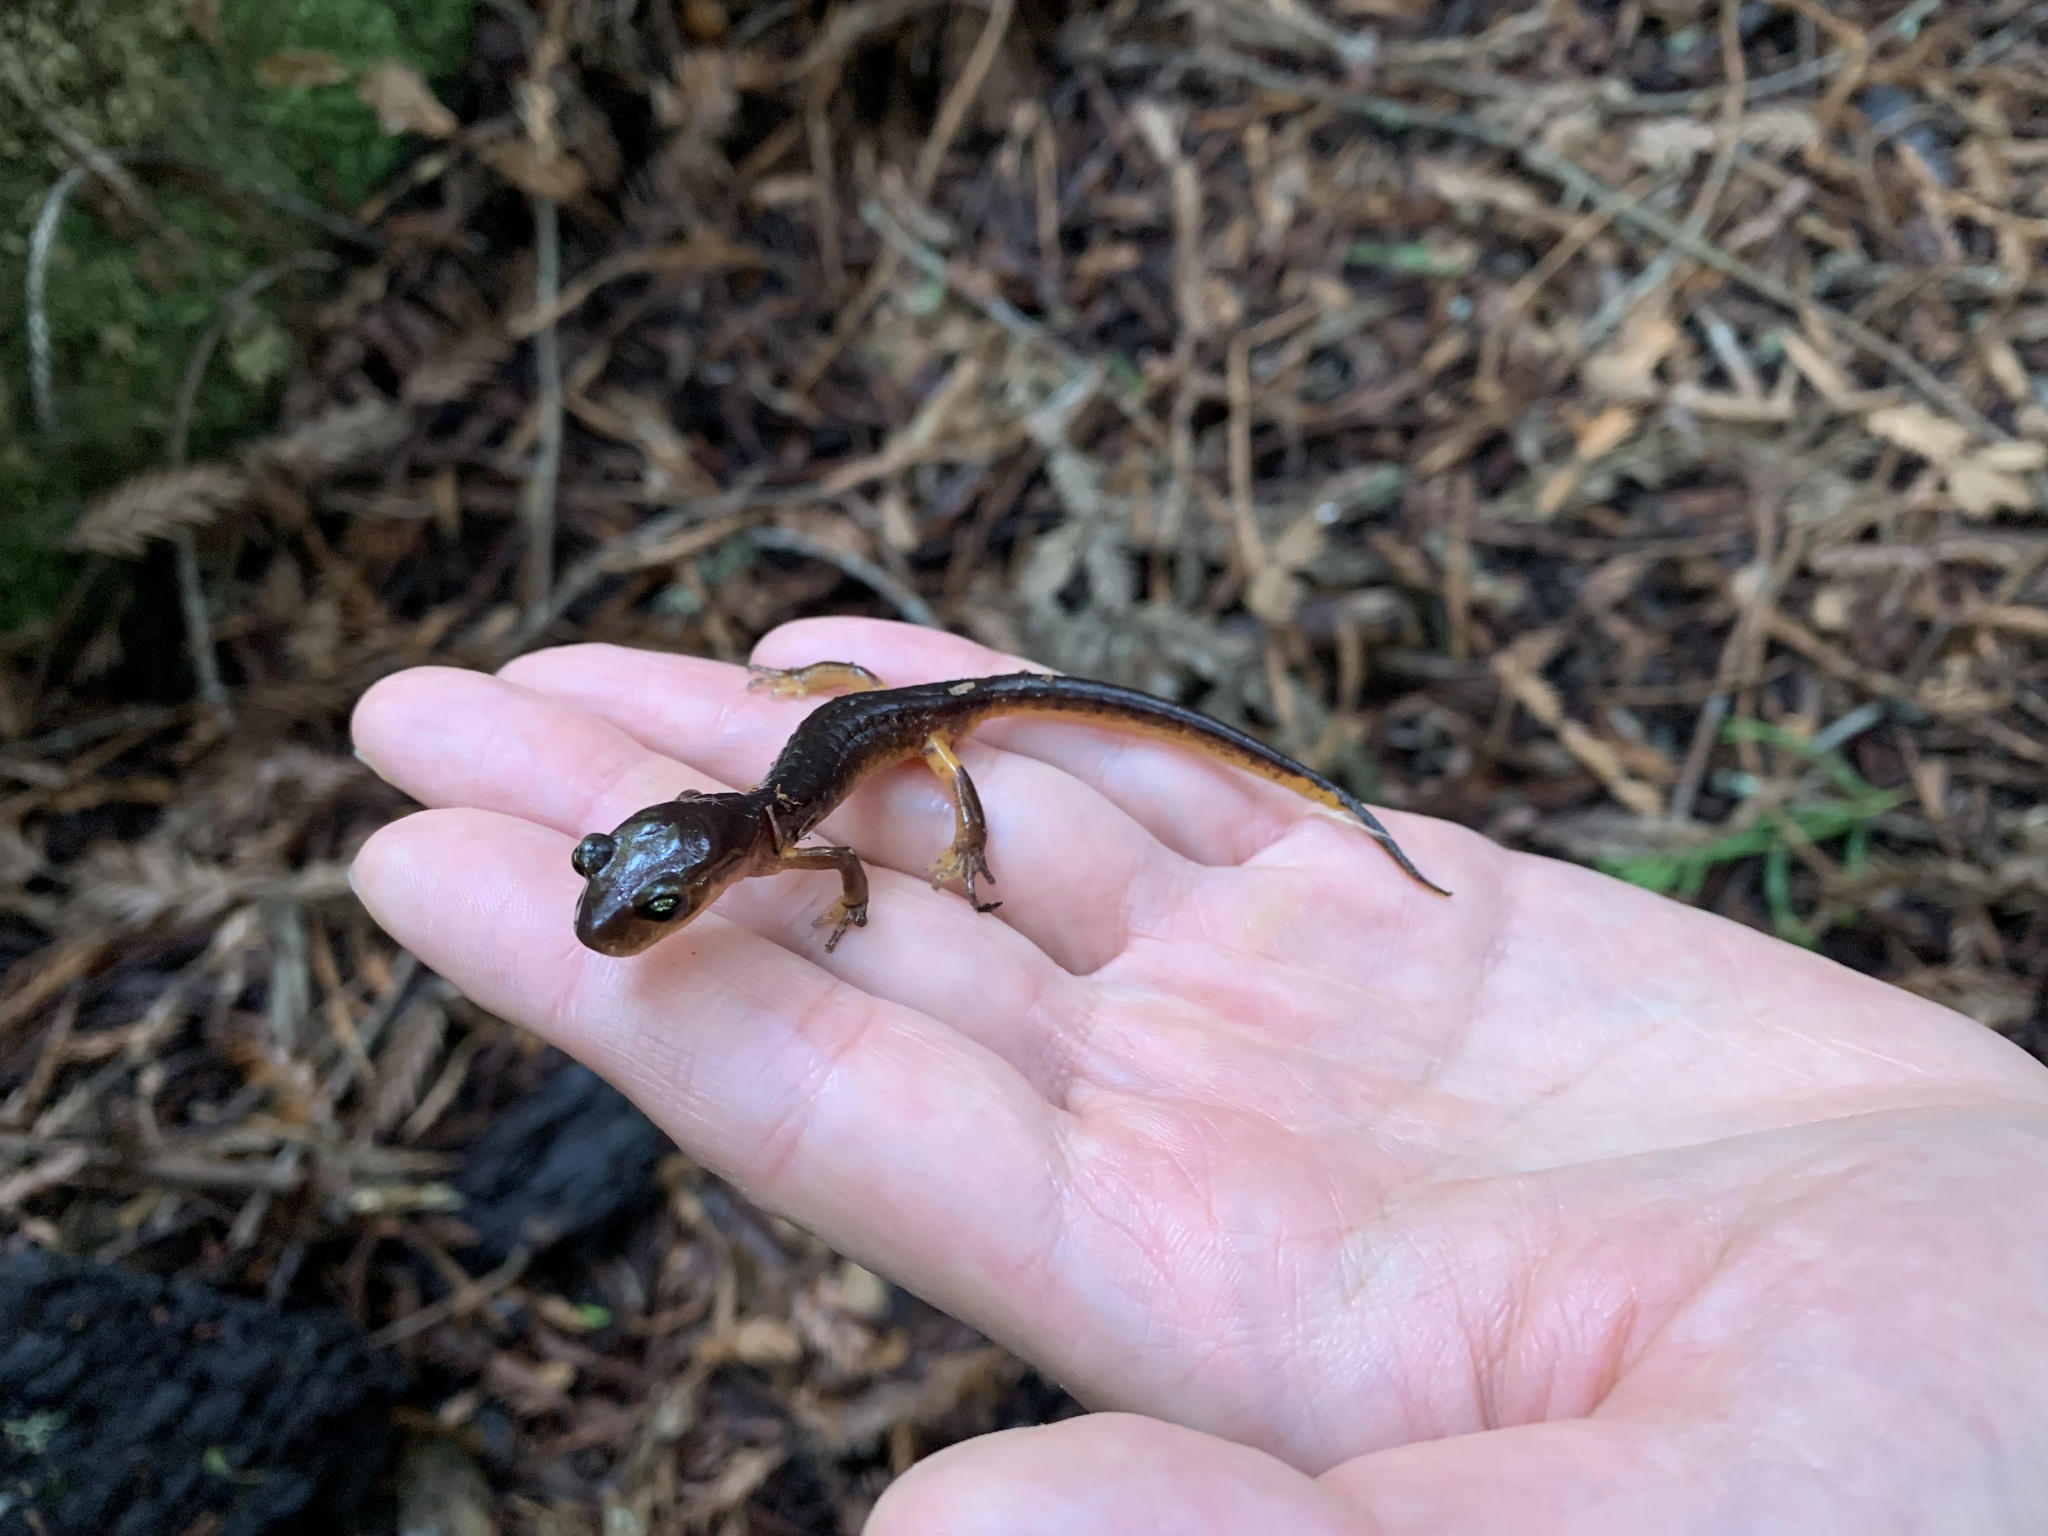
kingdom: Animalia
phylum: Chordata
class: Amphibia
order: Caudata
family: Plethodontidae
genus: Ensatina
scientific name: Ensatina eschscholtzii
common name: Ensatina
